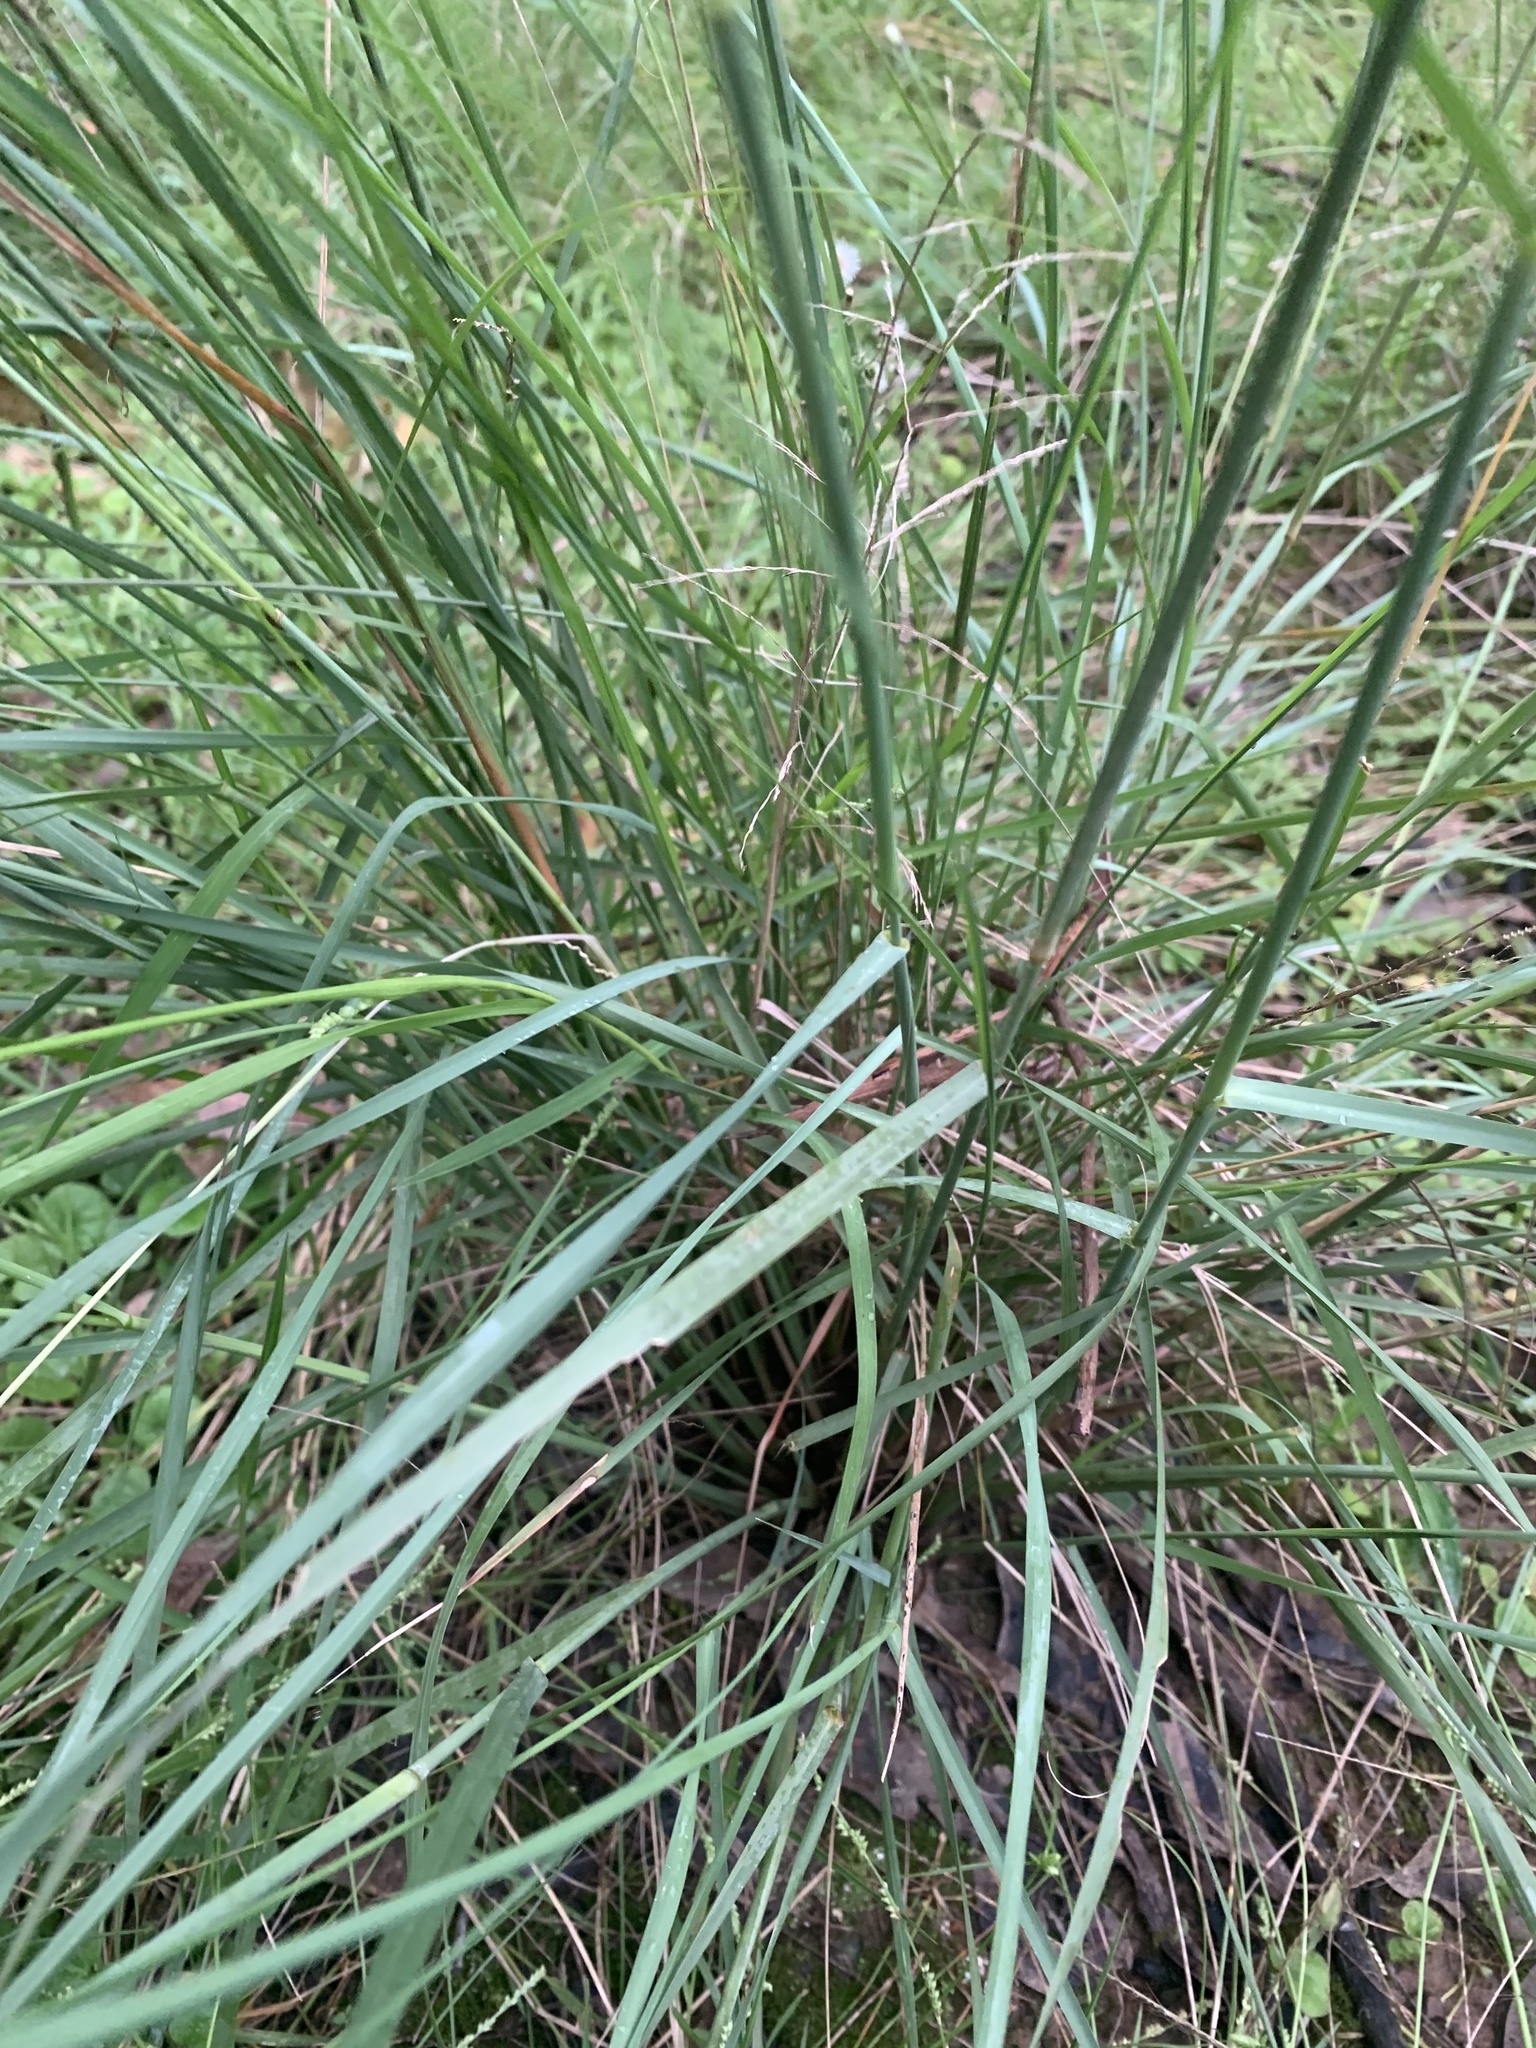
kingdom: Plantae
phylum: Tracheophyta
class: Liliopsida
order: Poales
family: Poaceae
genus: Eragrostis
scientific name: Eragrostis curvula
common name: African love-grass
